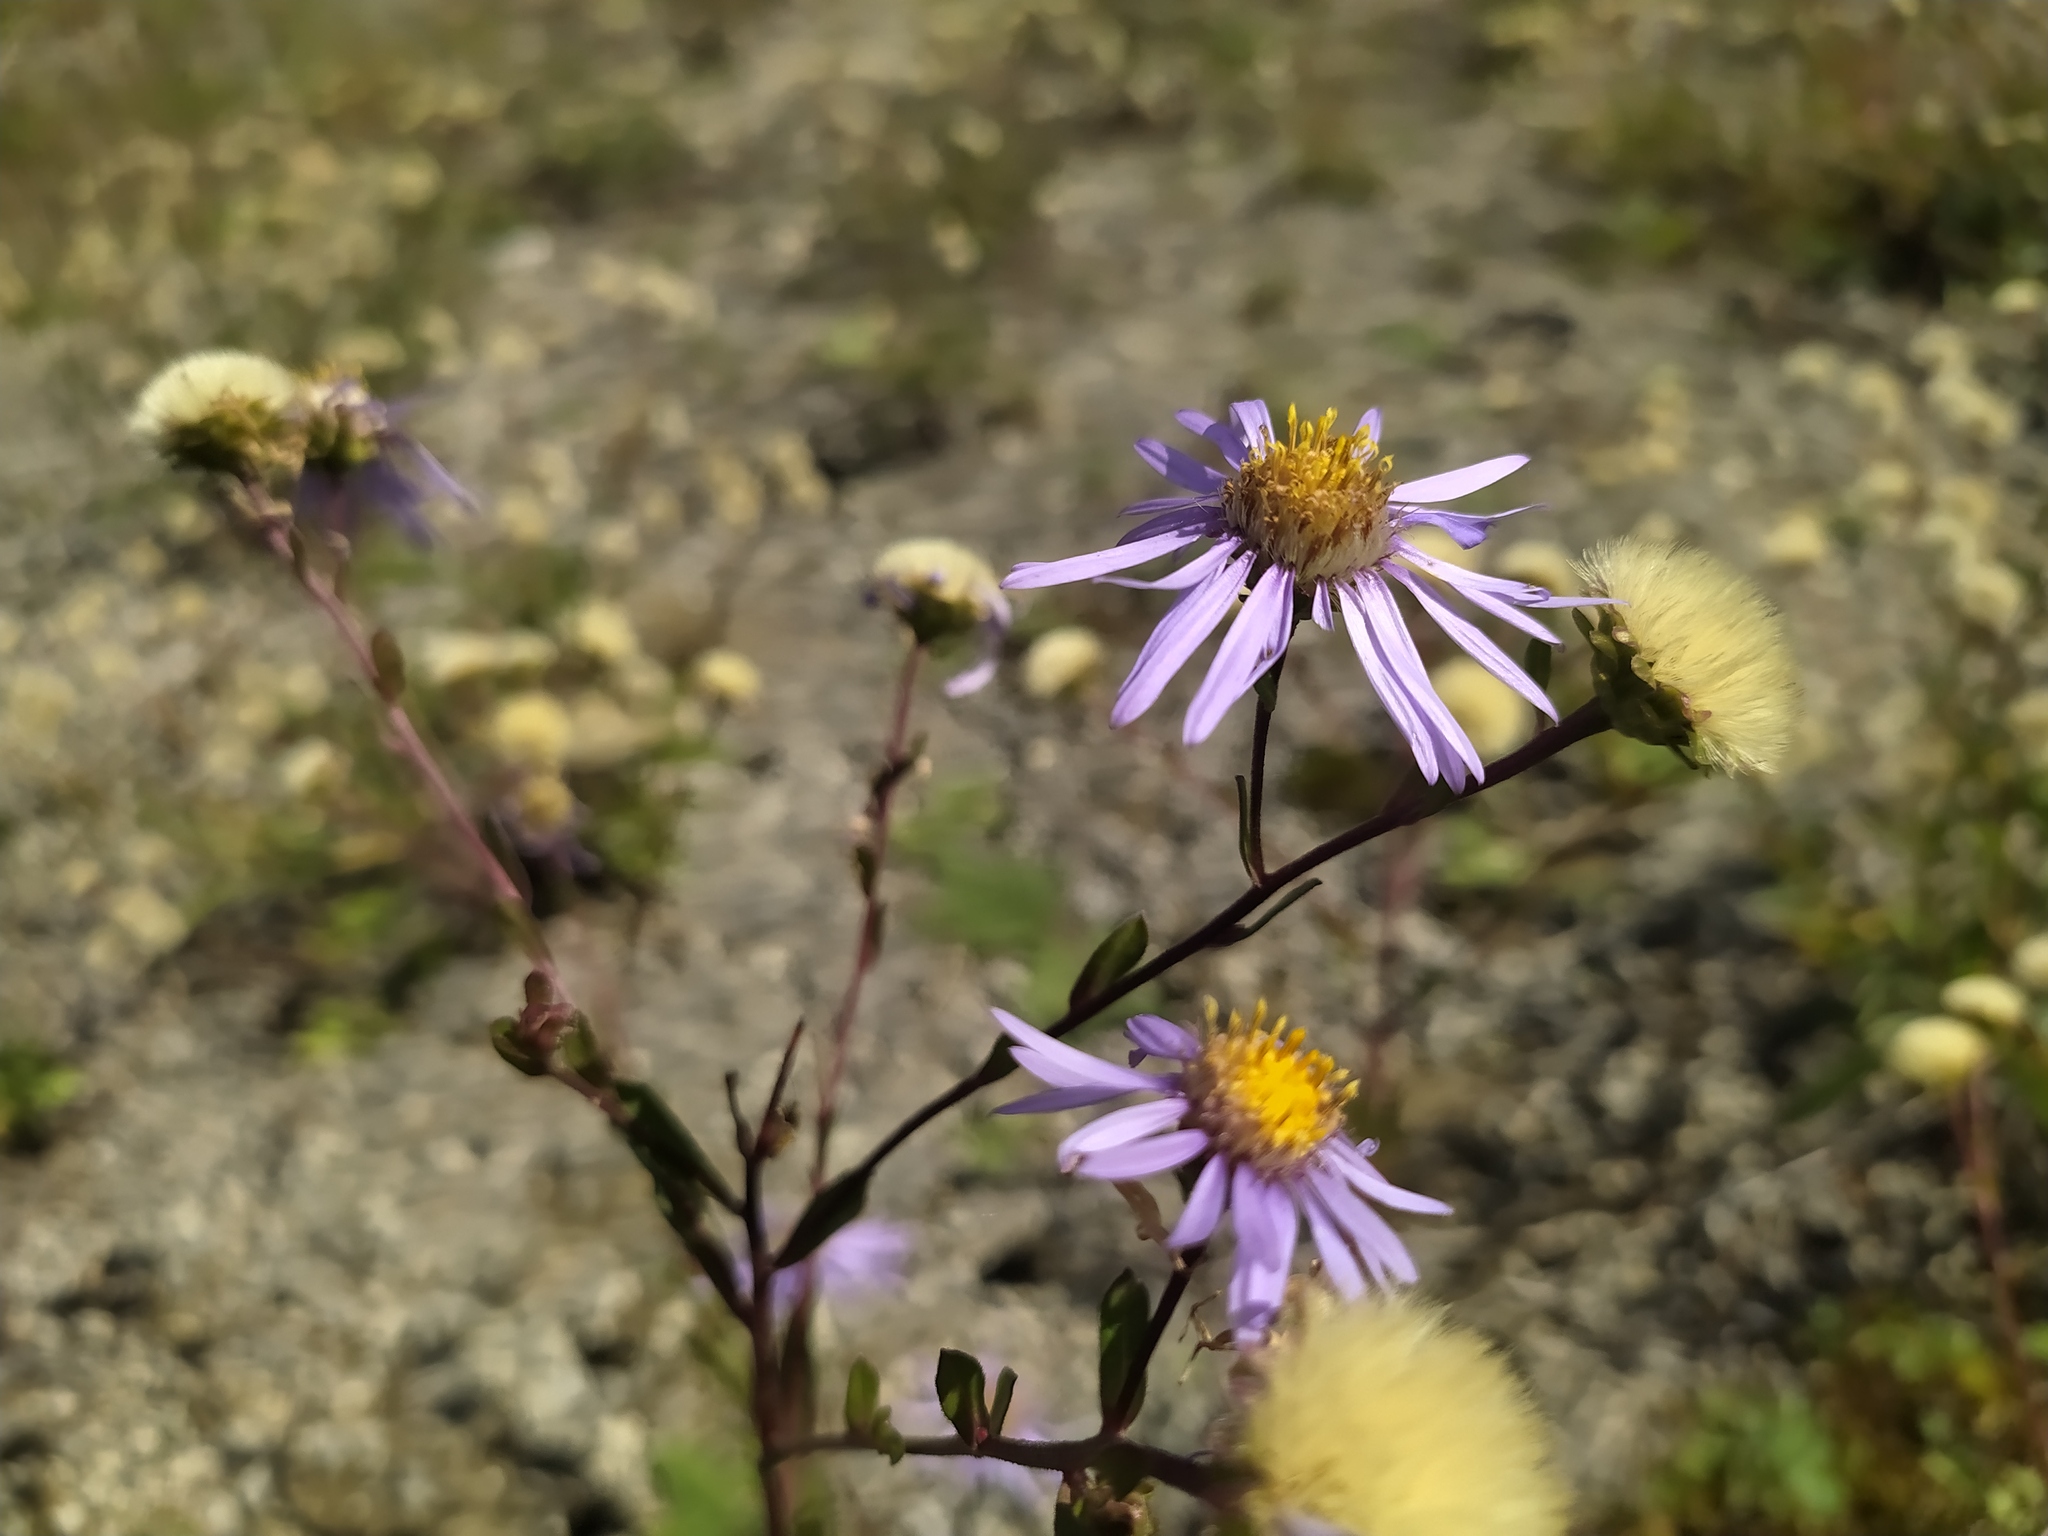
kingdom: Plantae
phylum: Tracheophyta
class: Magnoliopsida
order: Asterales
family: Asteraceae
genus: Aster
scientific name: Aster amellus
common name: European michaelmas daisy
